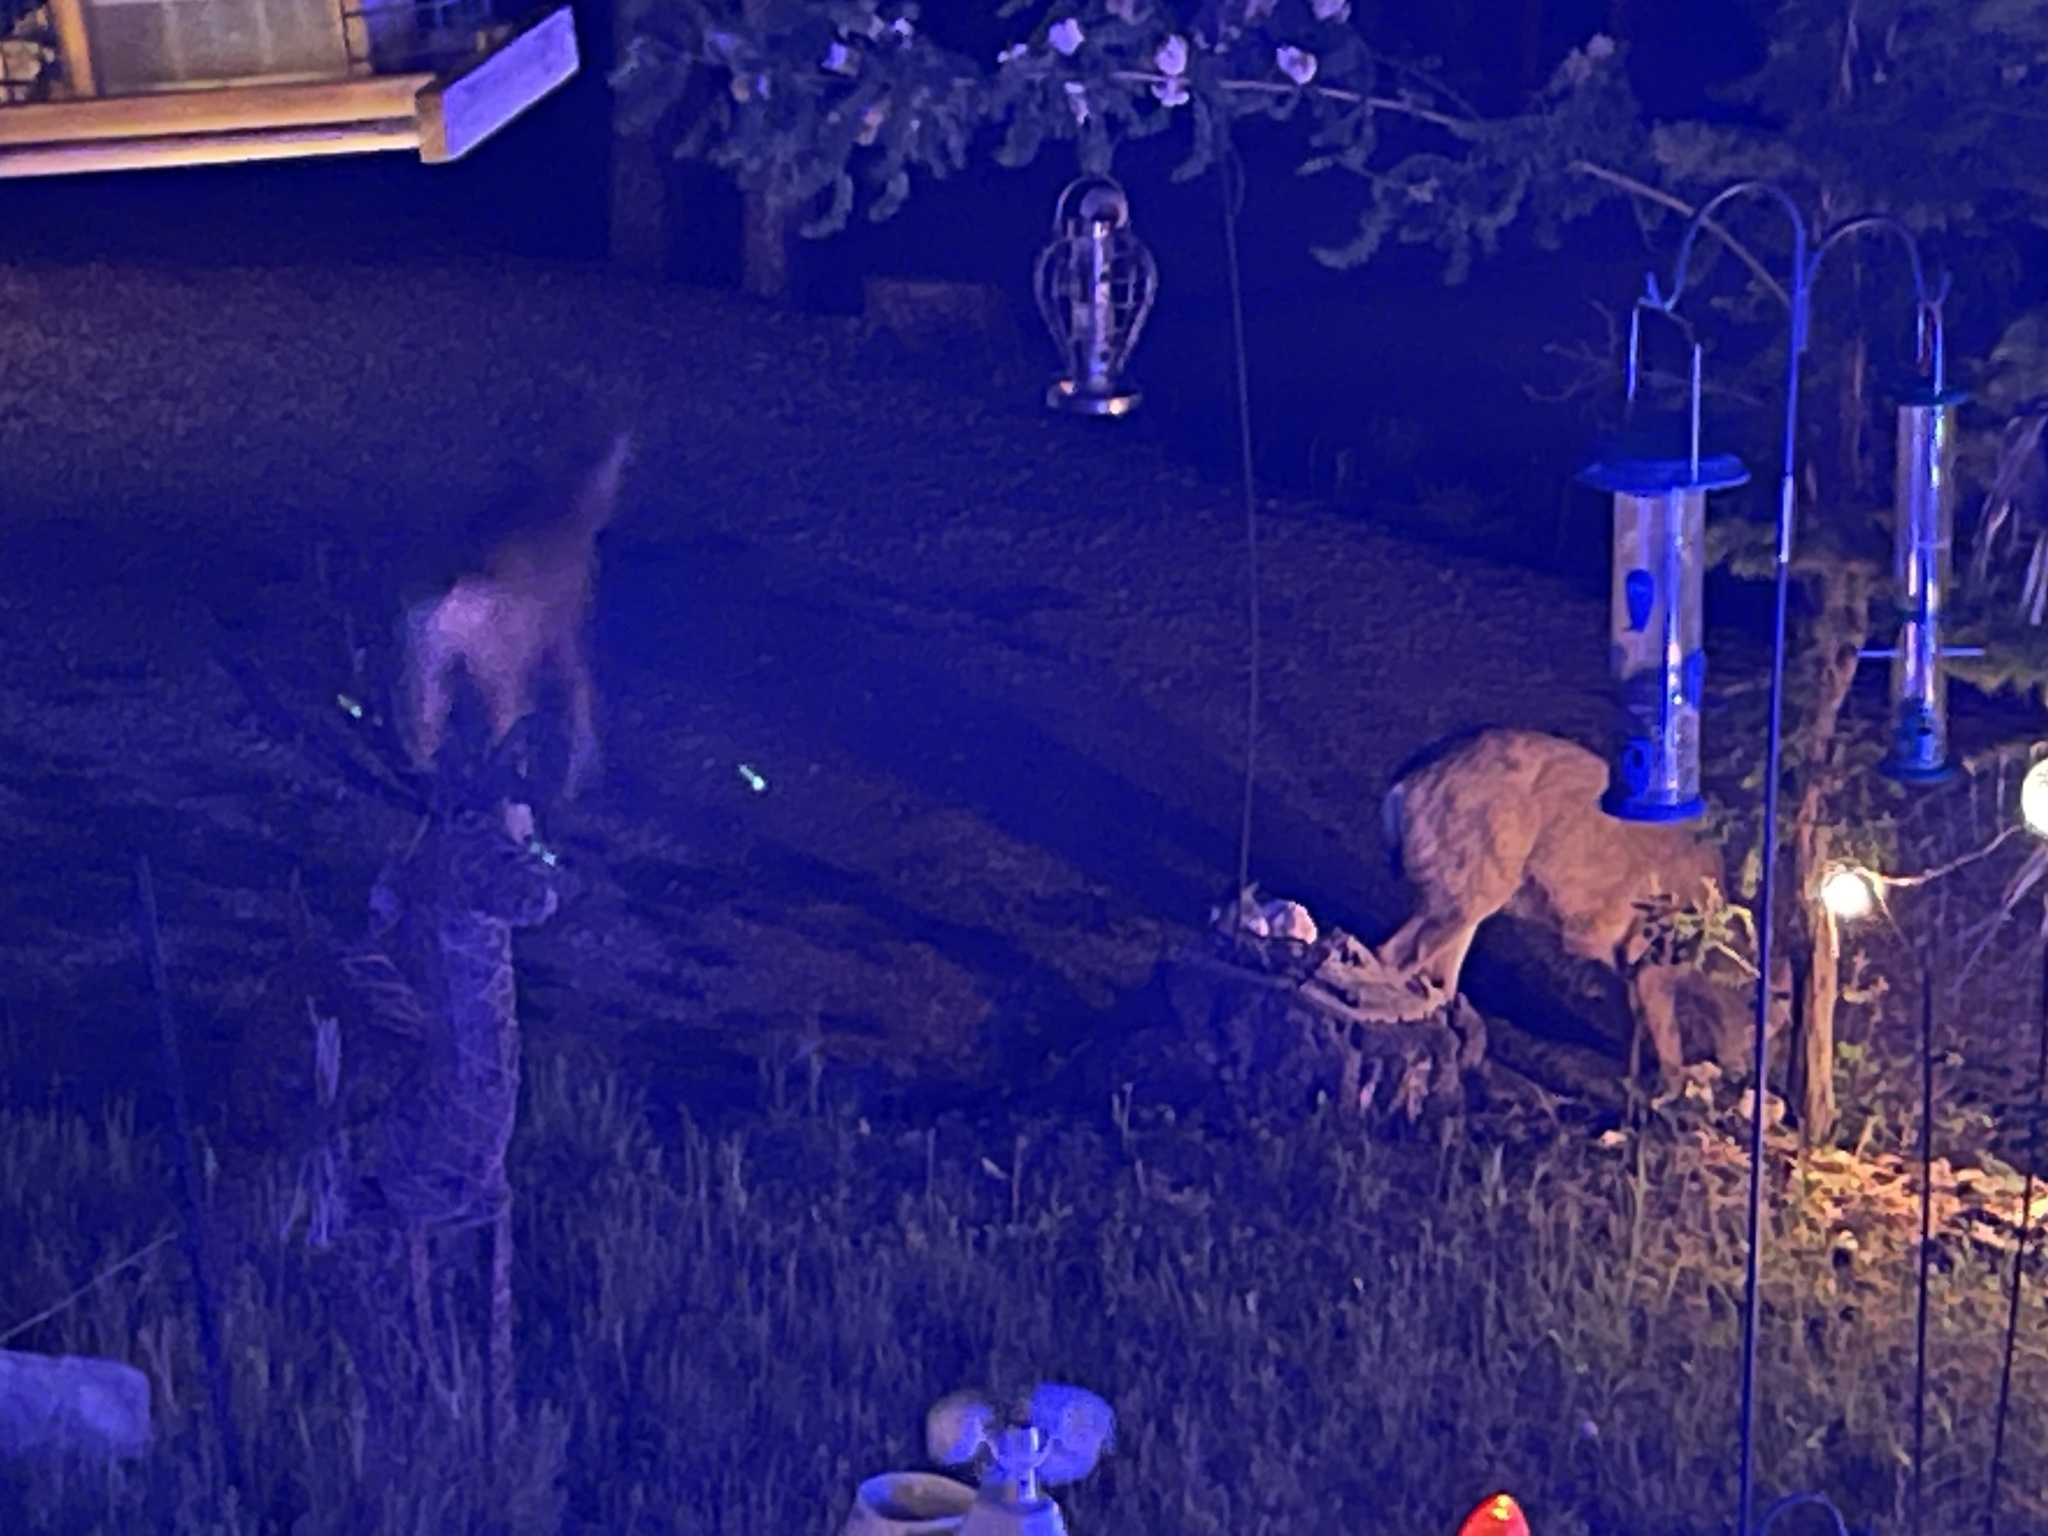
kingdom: Animalia
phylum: Chordata
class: Mammalia
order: Artiodactyla
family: Cervidae
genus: Odocoileus
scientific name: Odocoileus hemionus
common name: Mule deer
